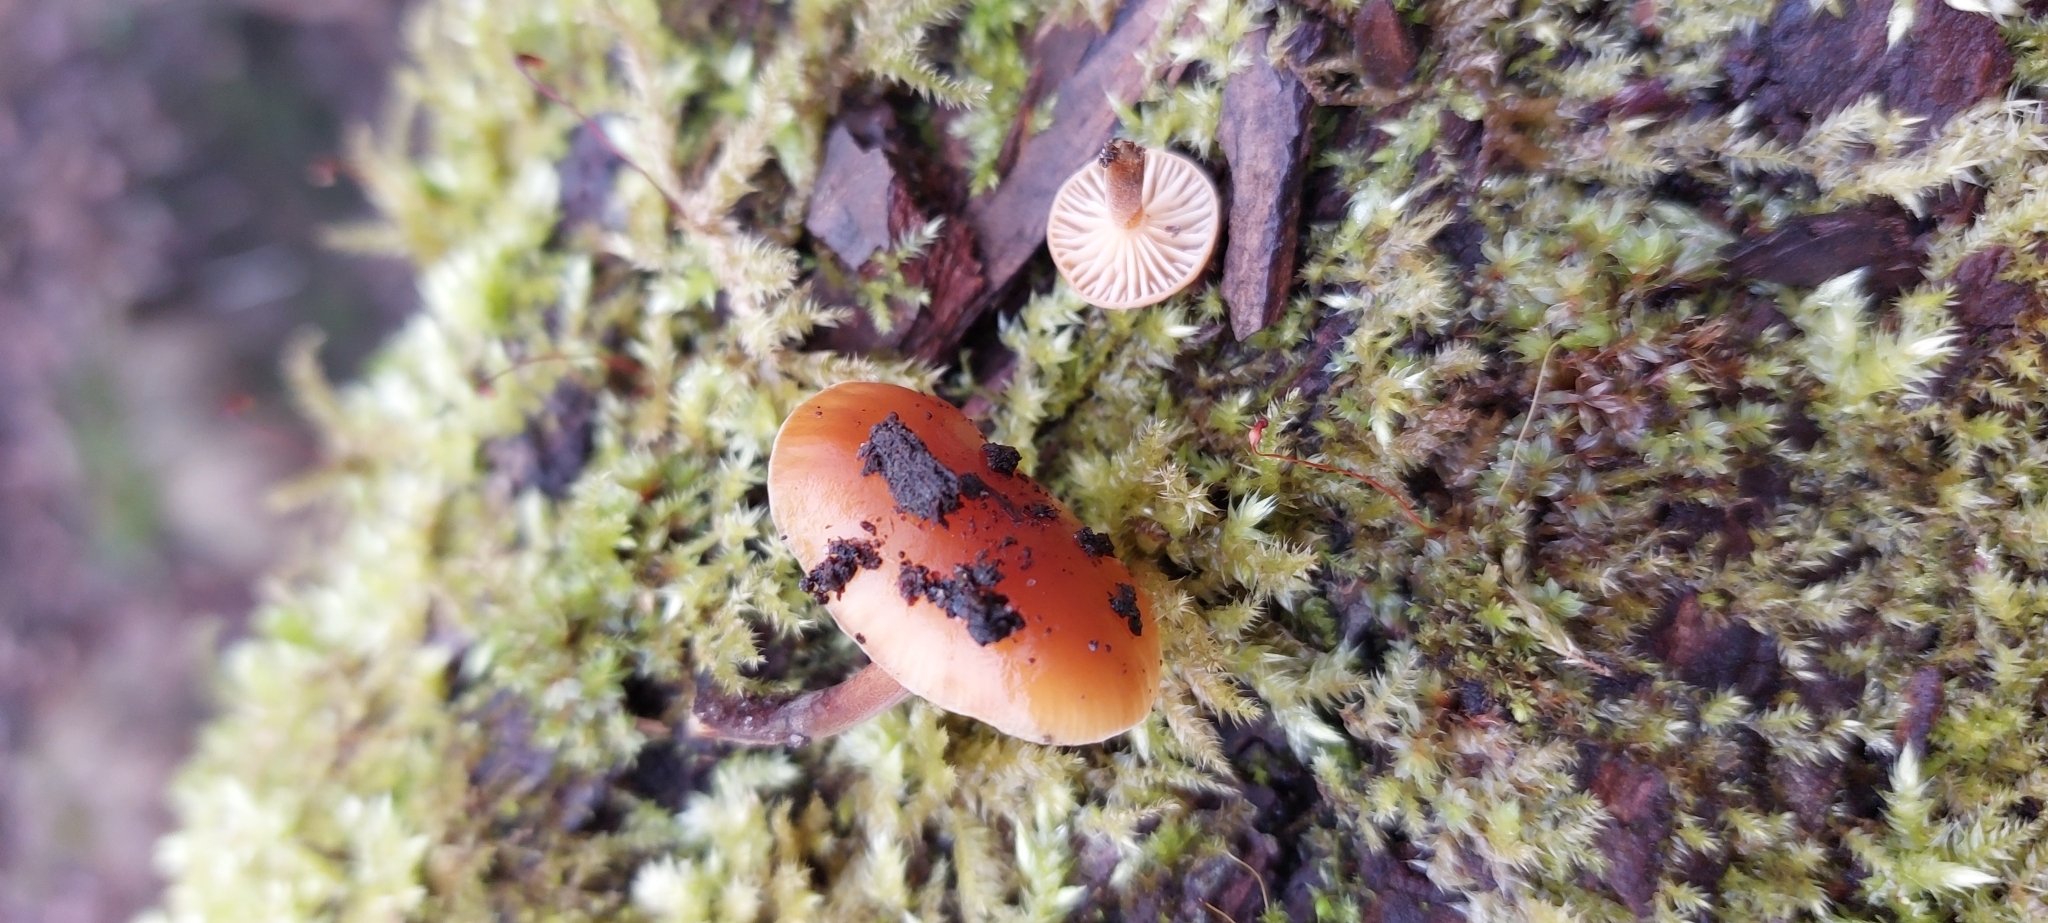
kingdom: Fungi
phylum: Basidiomycota
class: Agaricomycetes
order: Agaricales
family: Physalacriaceae
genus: Flammulina
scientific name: Flammulina
